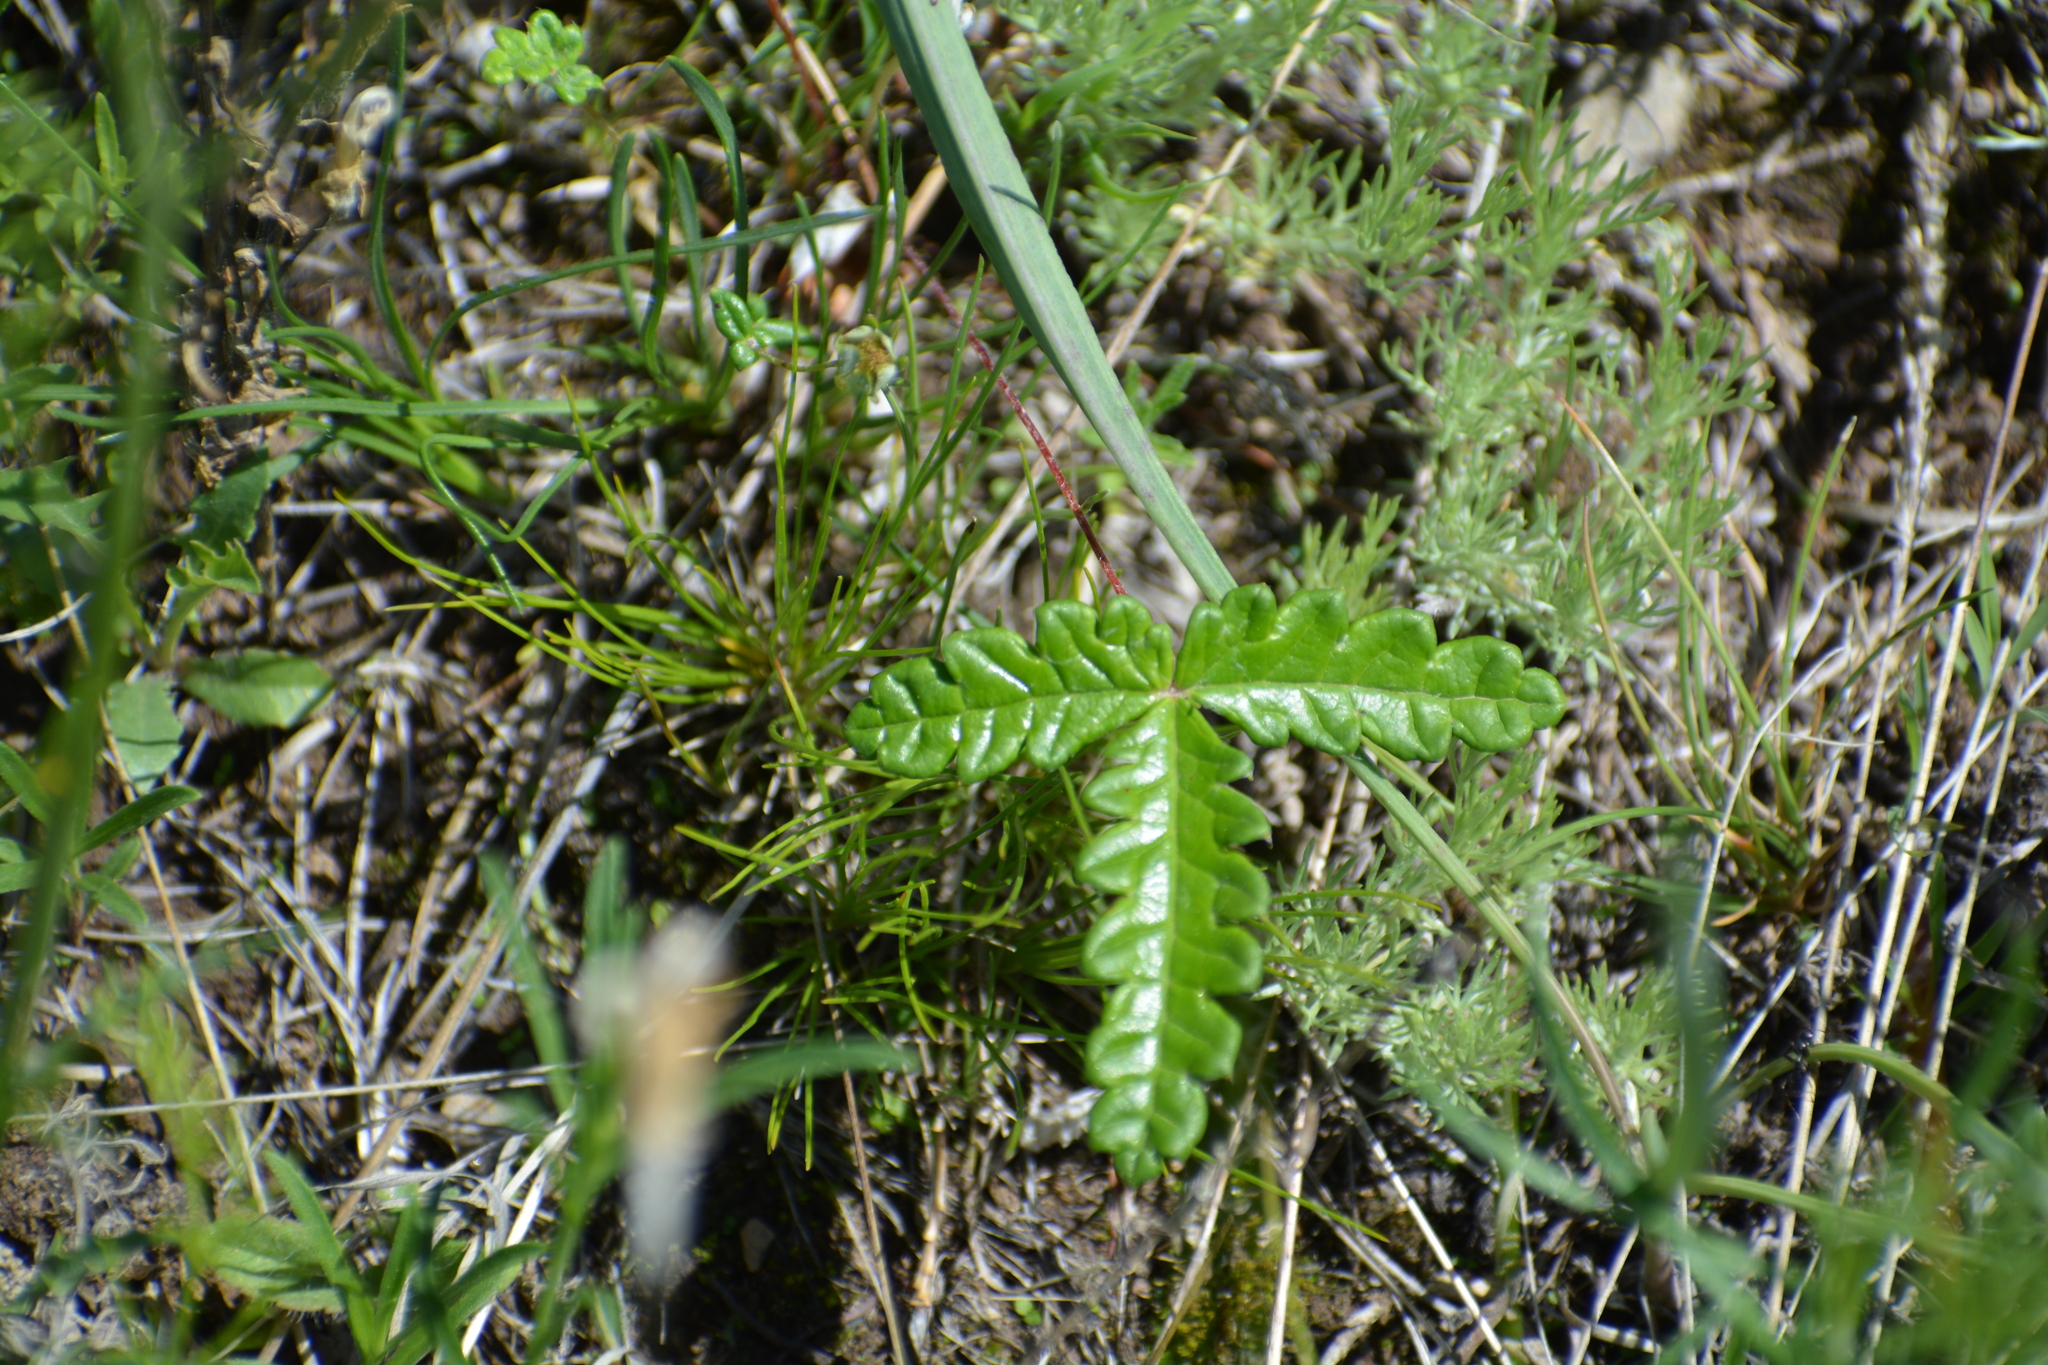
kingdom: Plantae
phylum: Tracheophyta
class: Magnoliopsida
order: Rosales
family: Rosaceae
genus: Potentilla
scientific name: Potentilla
